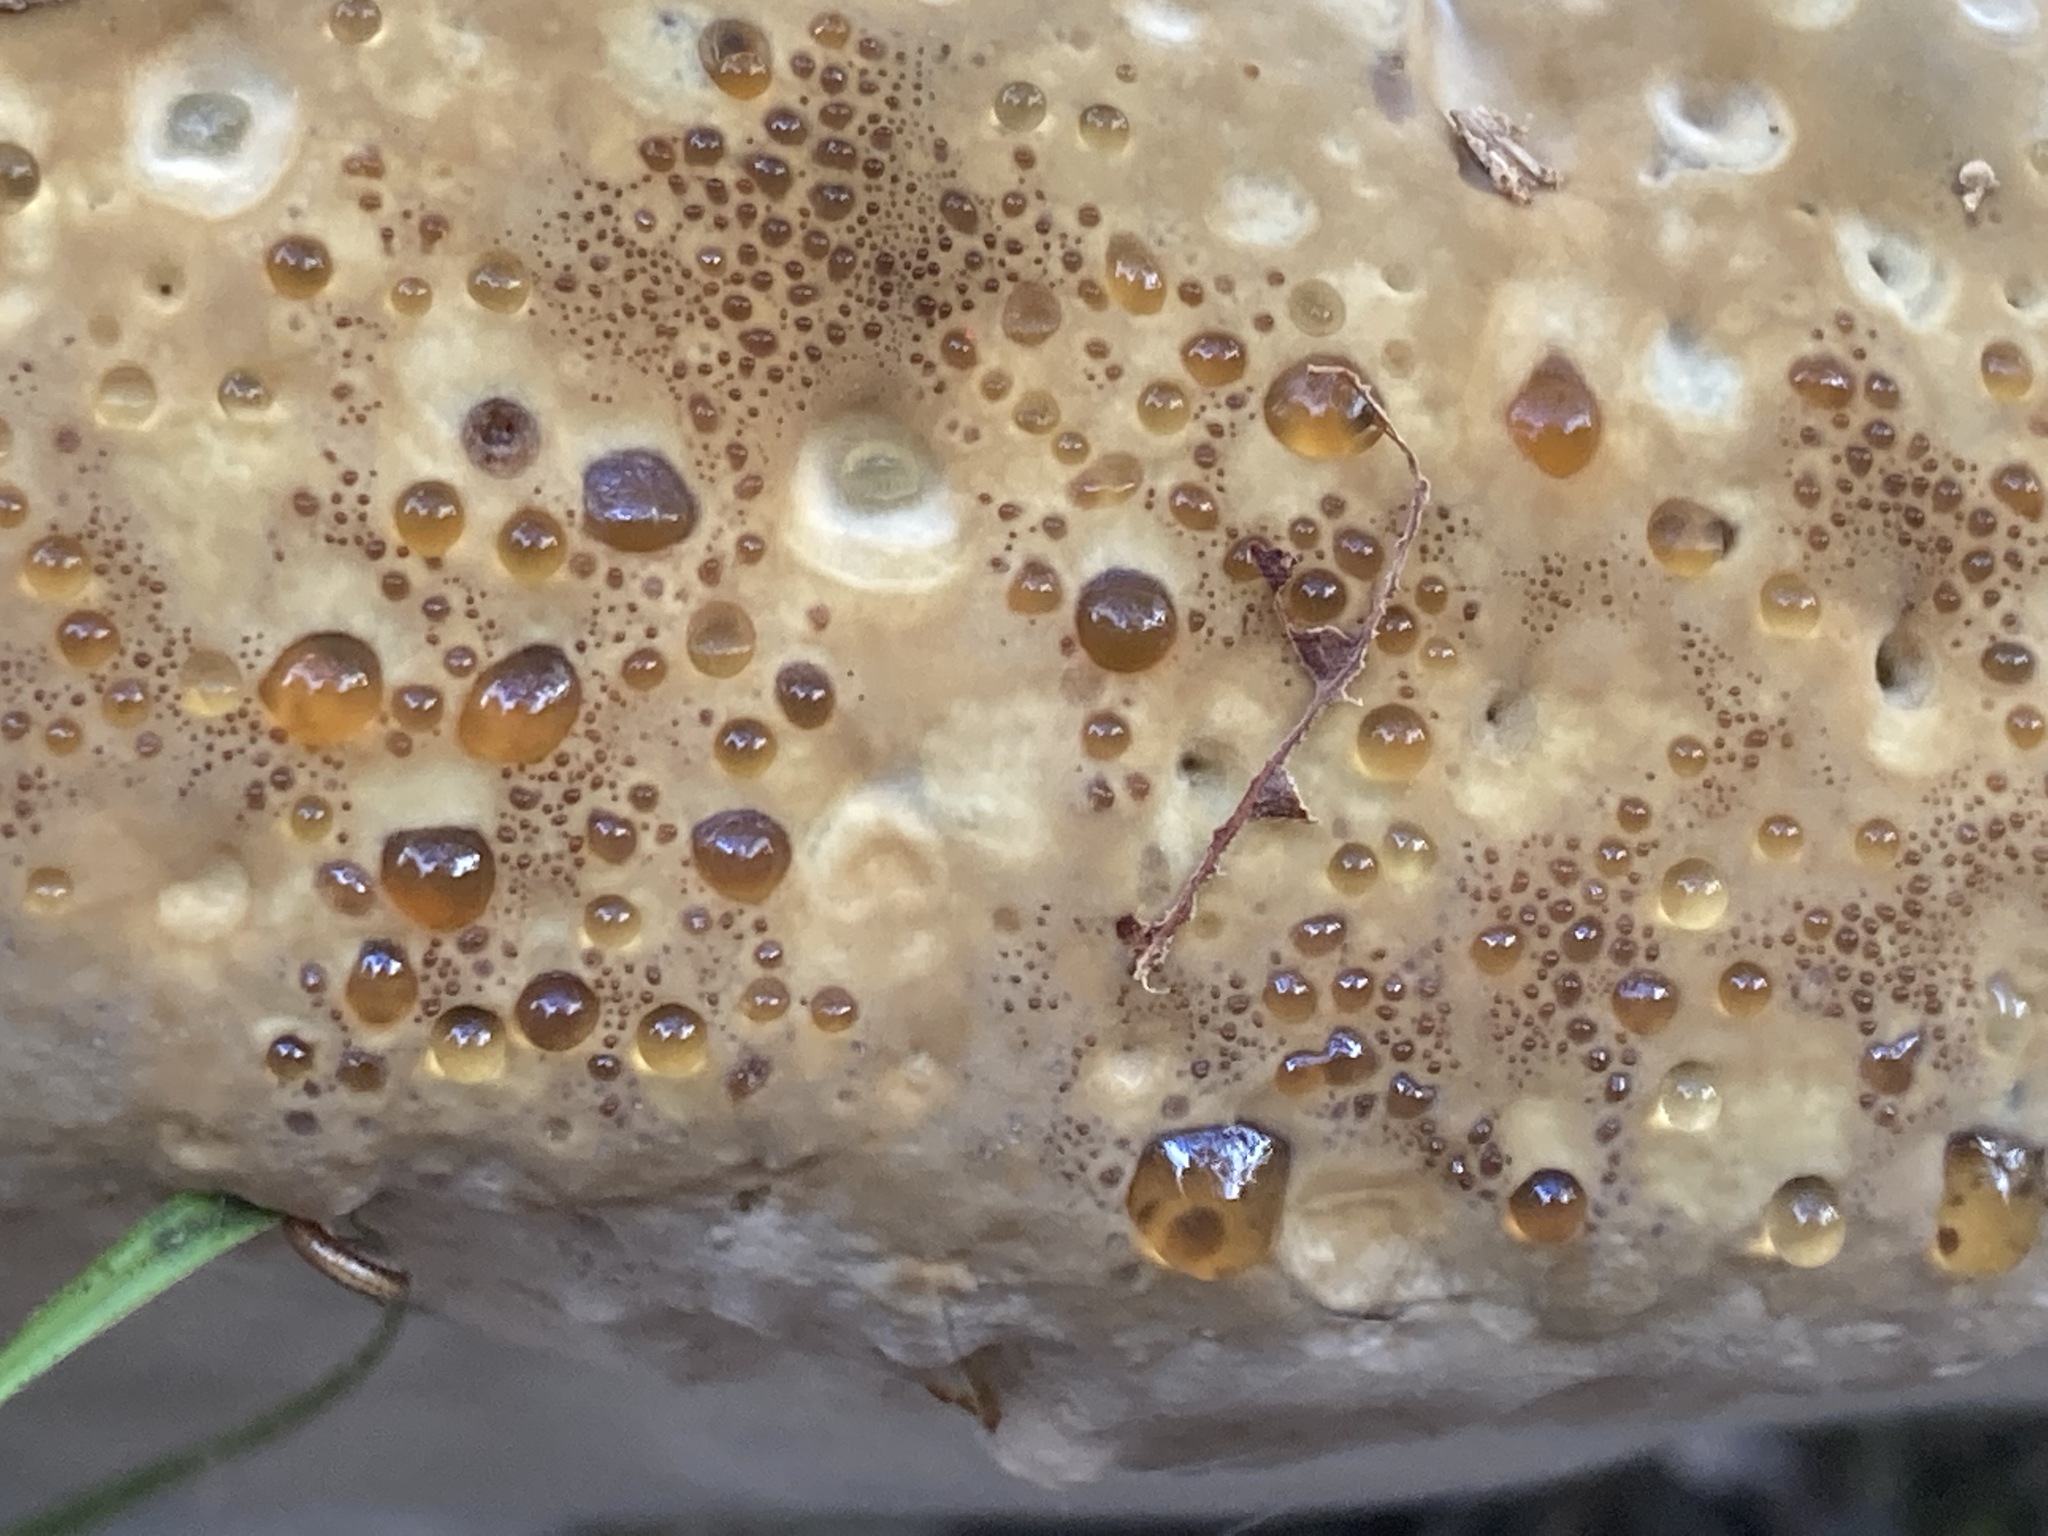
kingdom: Fungi
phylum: Basidiomycota
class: Agaricomycetes
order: Hymenochaetales
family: Hymenochaetaceae
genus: Pseudoinonotus
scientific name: Pseudoinonotus dryadeus
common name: Oak bracket
